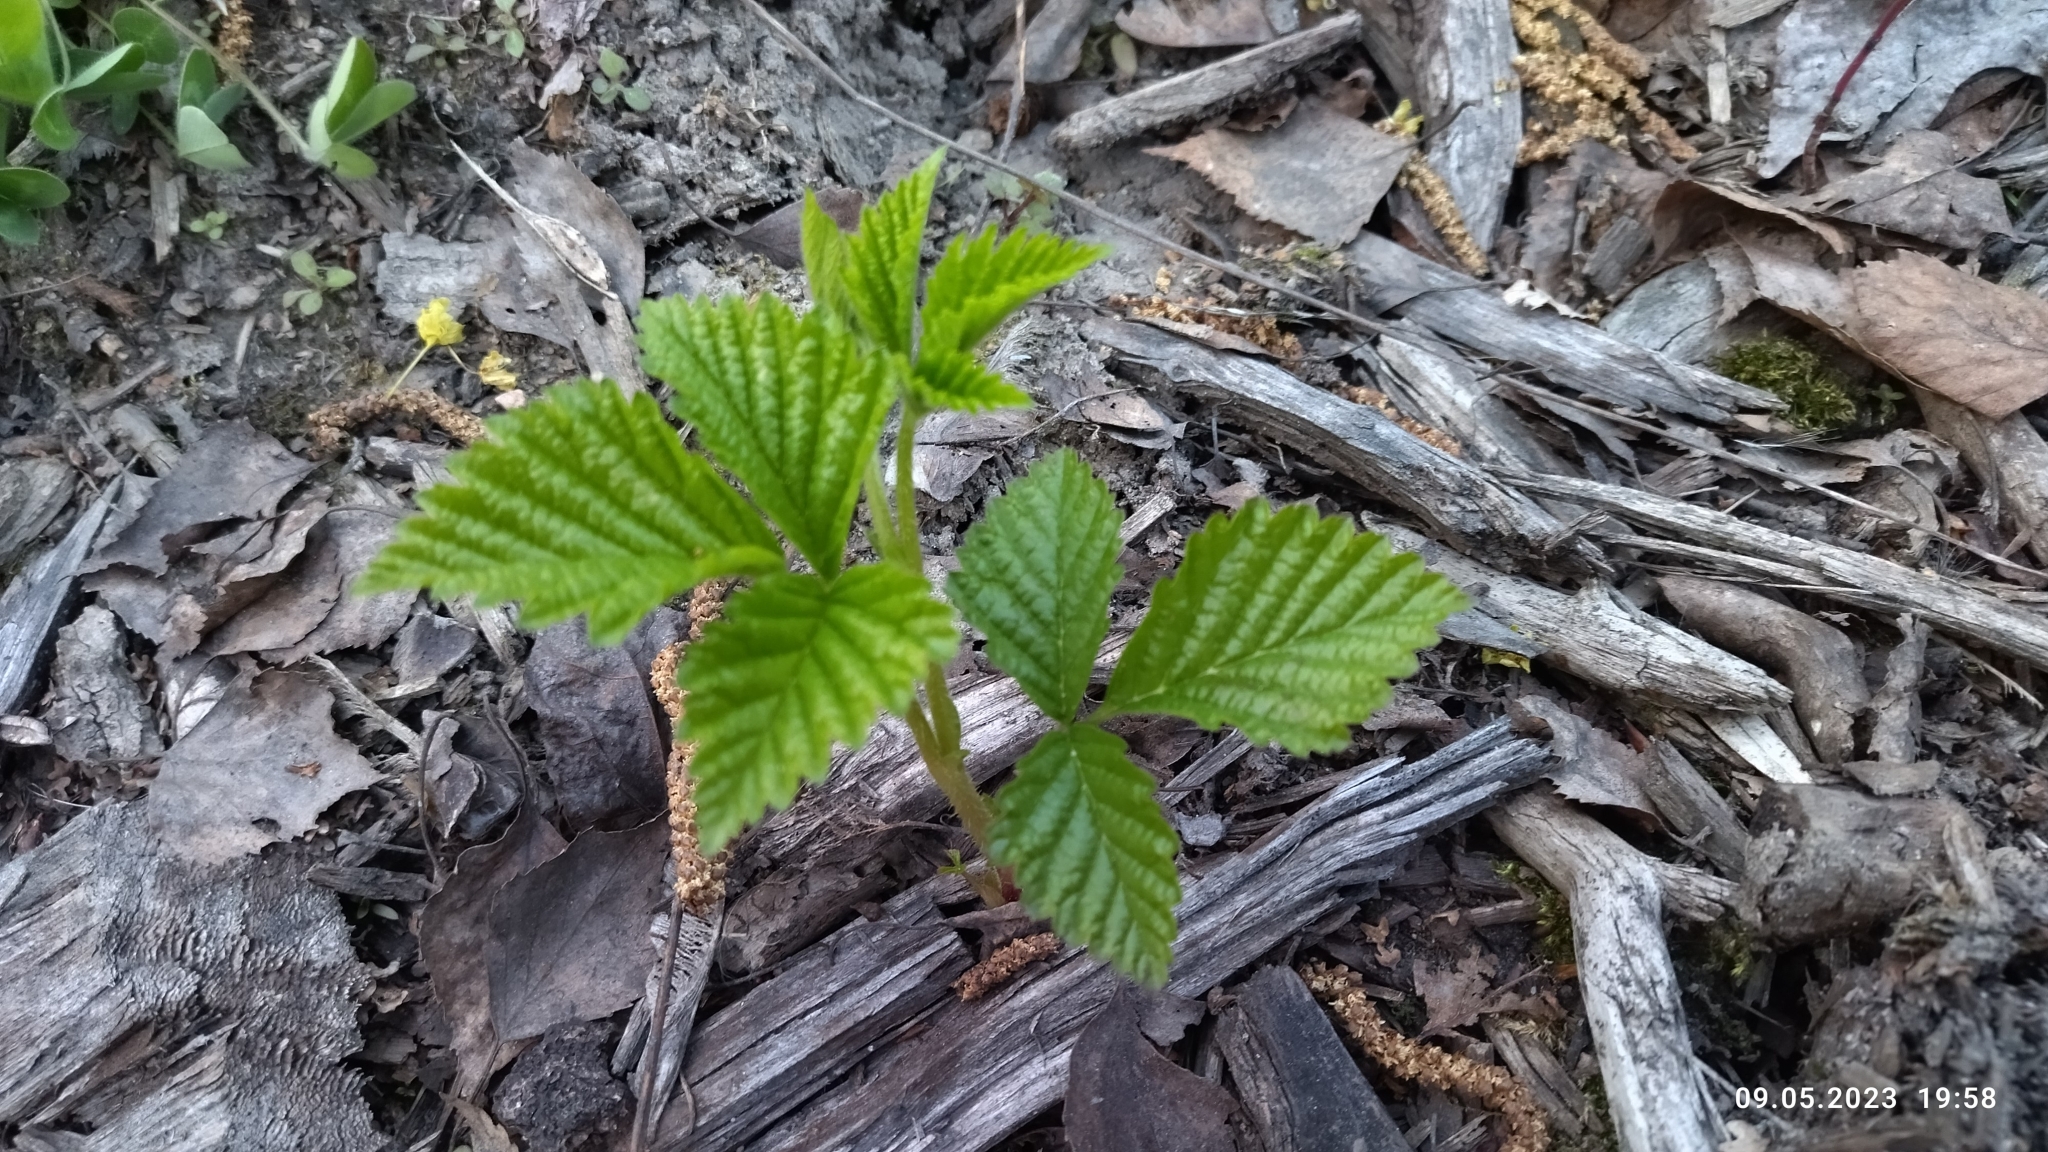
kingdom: Plantae
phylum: Tracheophyta
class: Magnoliopsida
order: Rosales
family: Rosaceae
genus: Rubus
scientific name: Rubus saxatilis
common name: Stone bramble
